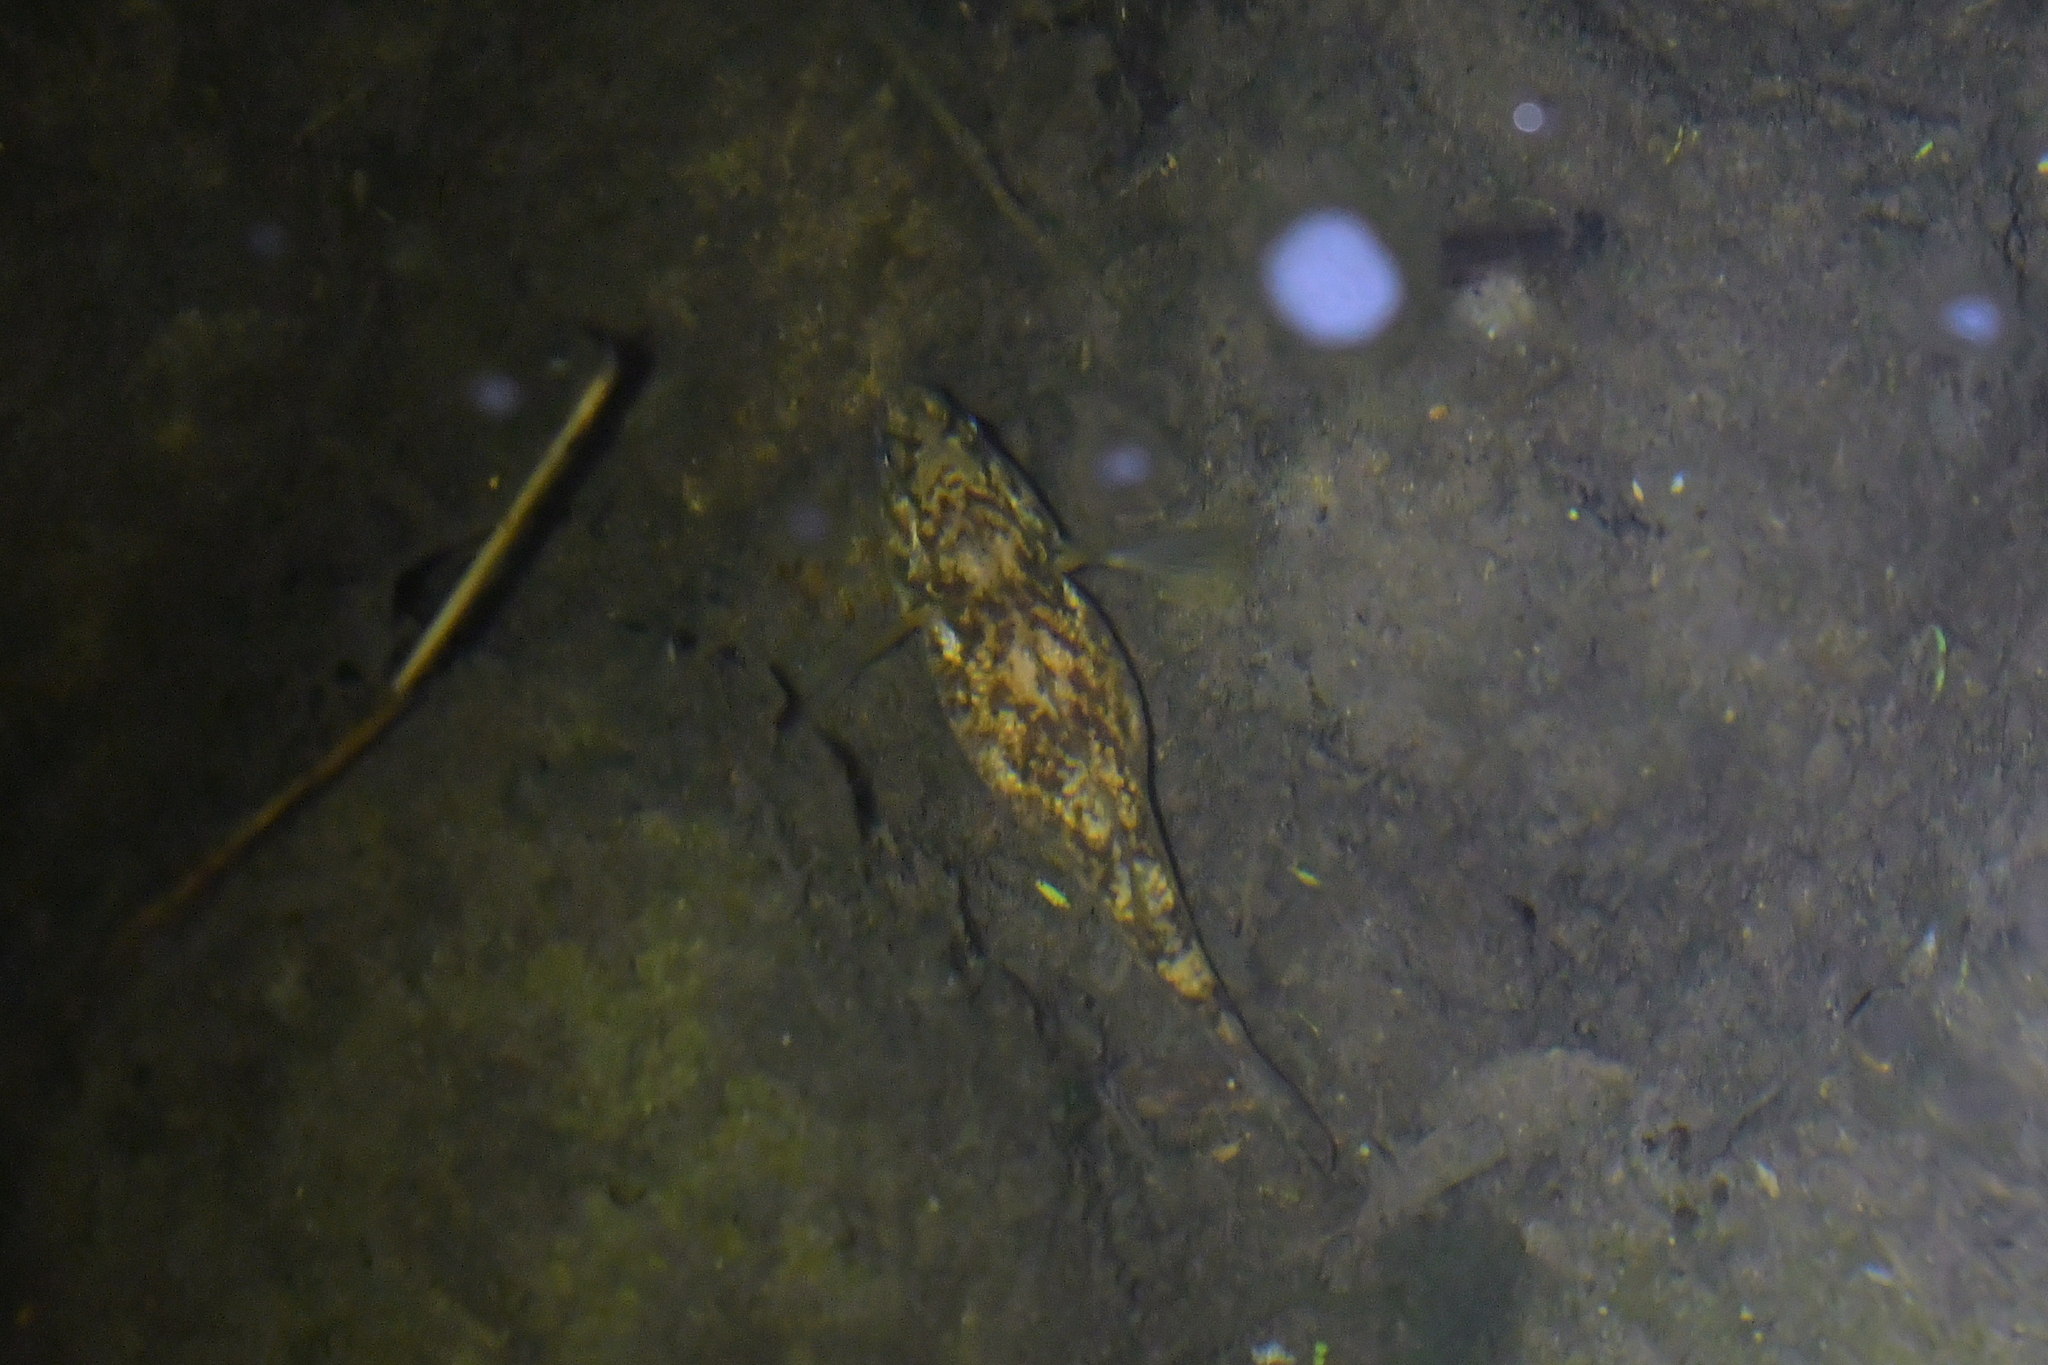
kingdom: Animalia
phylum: Chordata
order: Perciformes
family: Eleotridae
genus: Gobiomorphus
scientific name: Gobiomorphus huttoni
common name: Redfin bully
